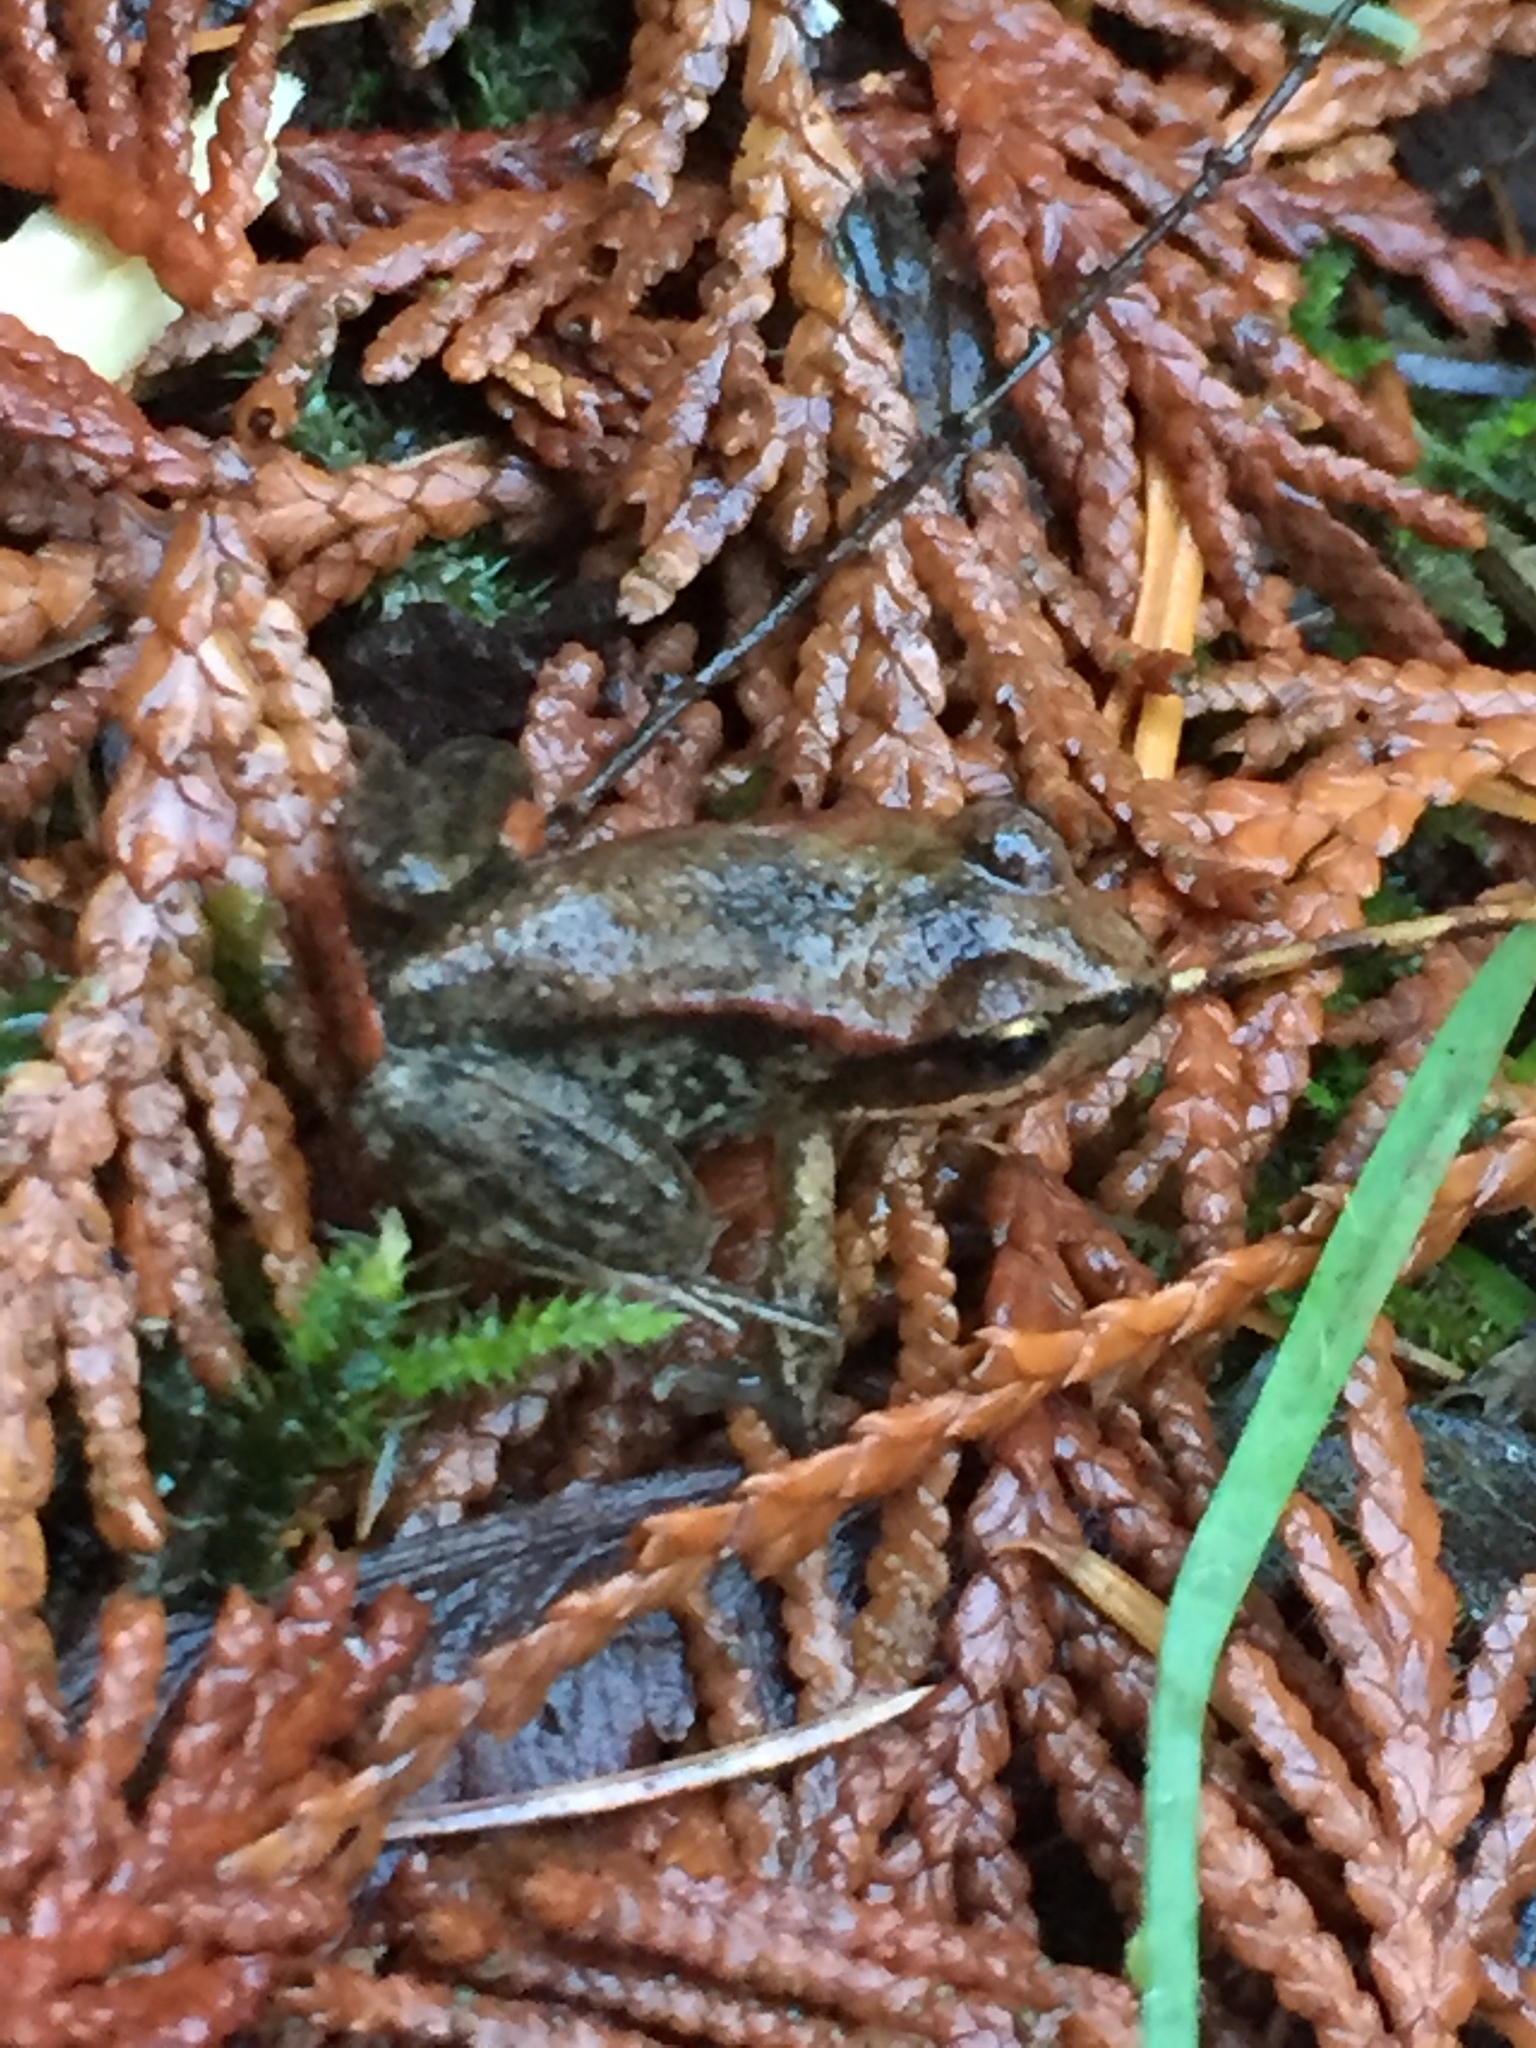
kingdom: Animalia
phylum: Chordata
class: Amphibia
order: Anura
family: Ranidae
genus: Rana
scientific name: Rana aurora
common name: Red-legged frog
